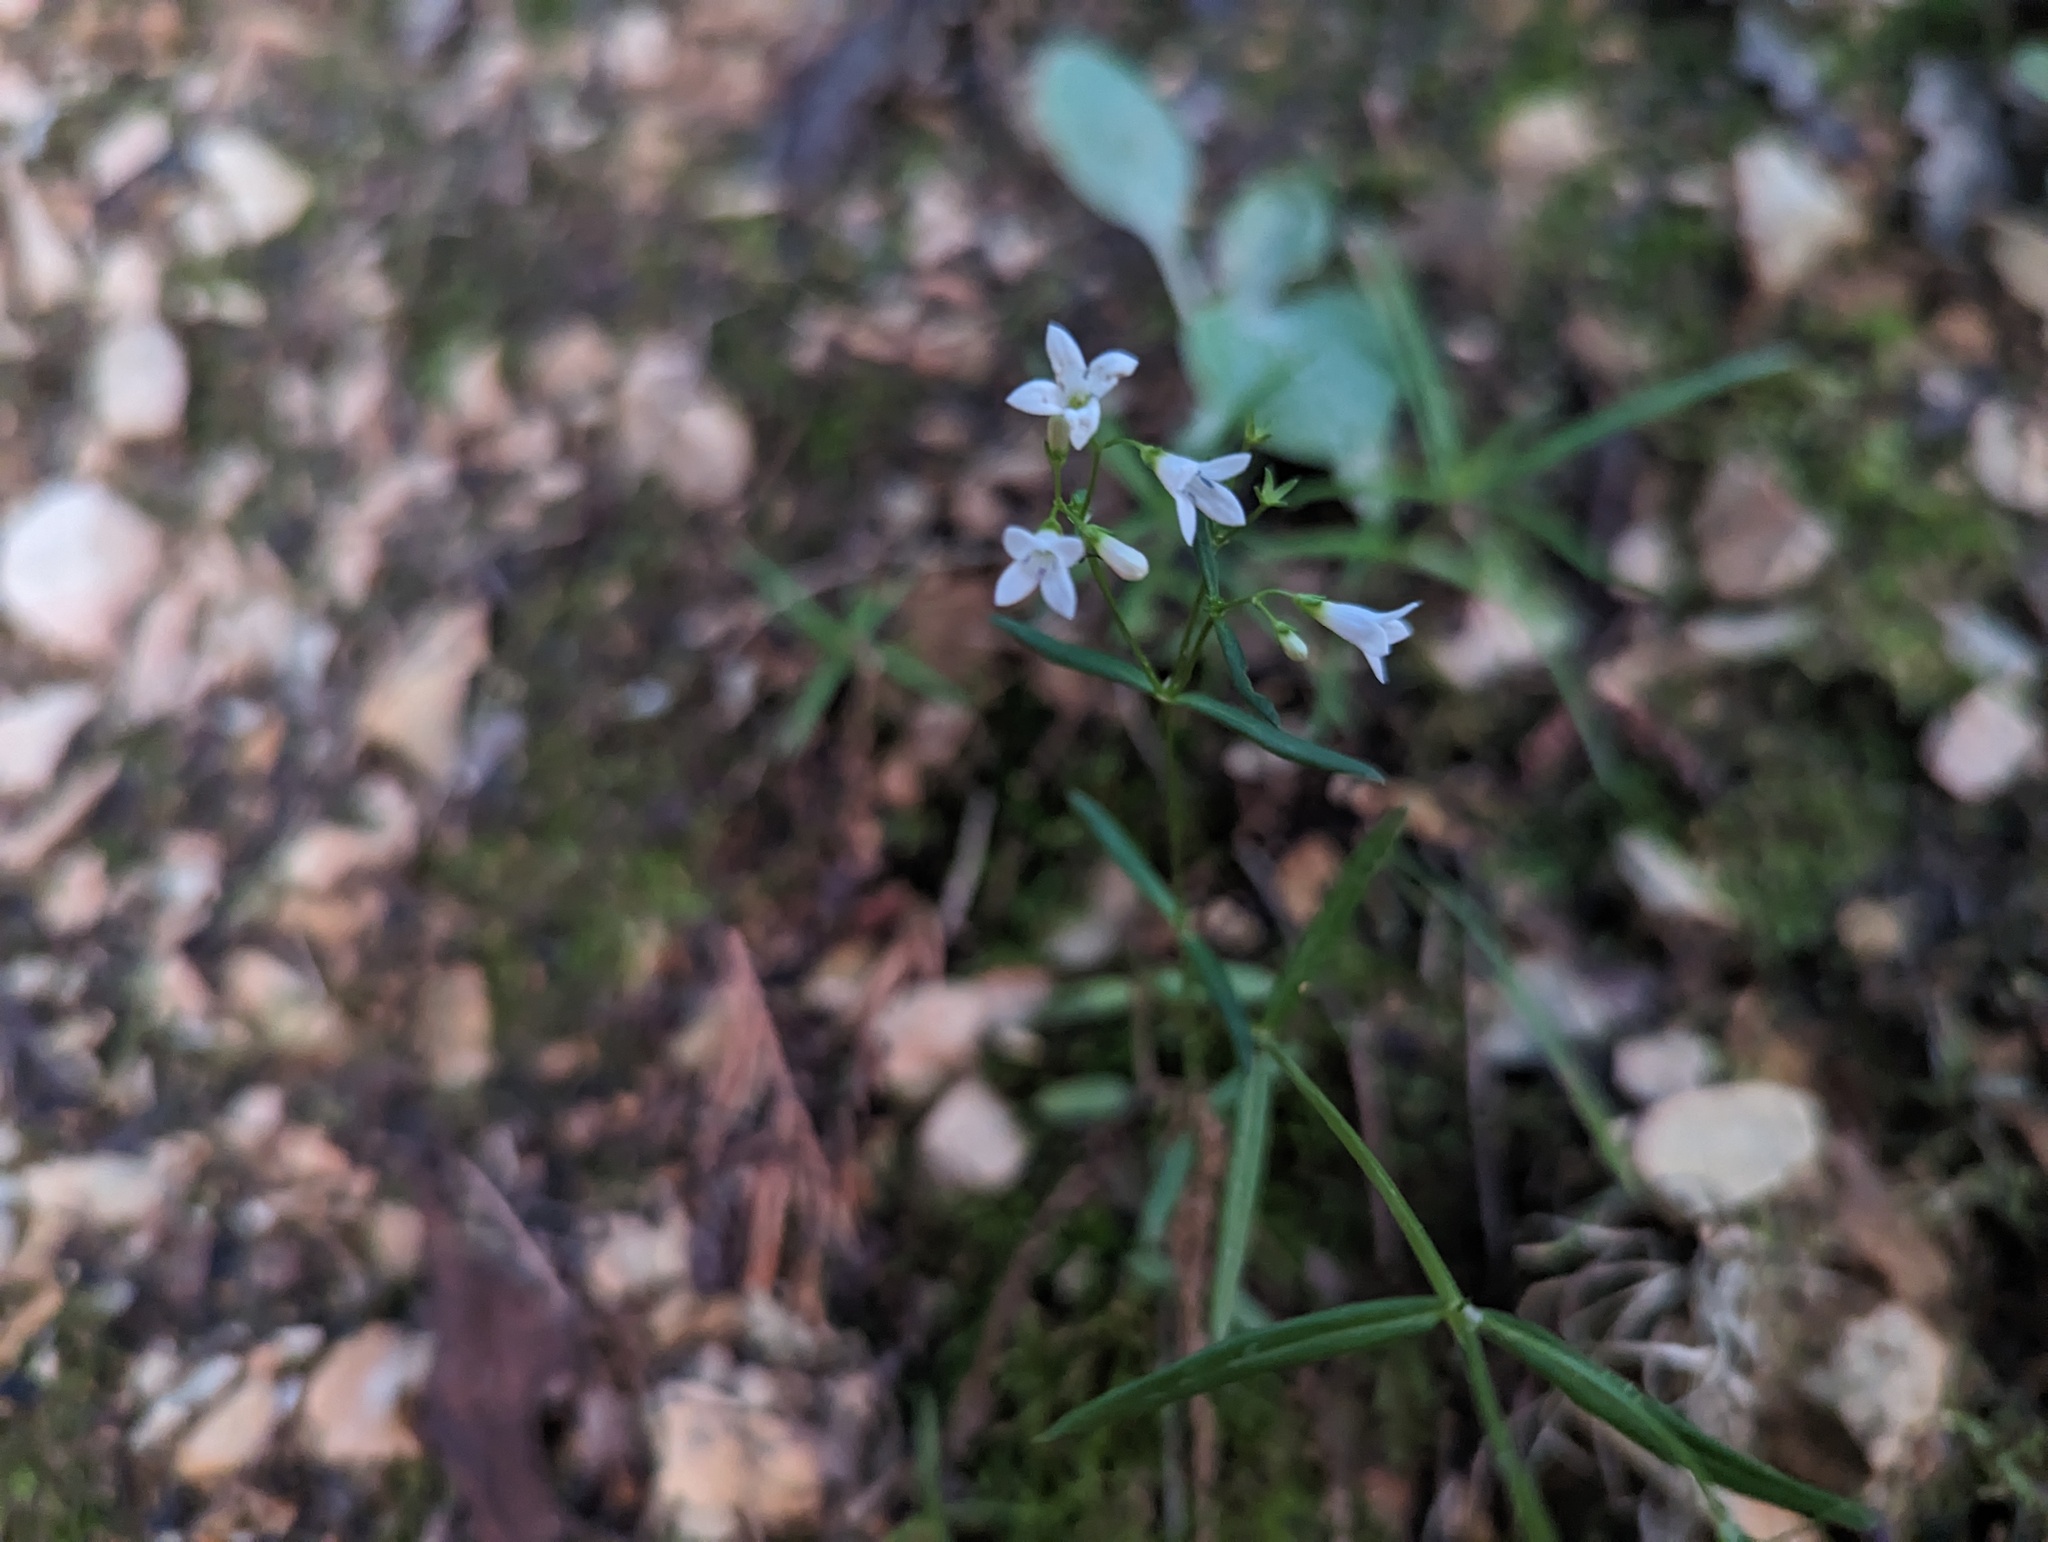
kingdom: Plantae
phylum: Tracheophyta
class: Magnoliopsida
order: Gentianales
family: Rubiaceae
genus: Houstonia
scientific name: Houstonia longifolia
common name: Long-leaved bluets
